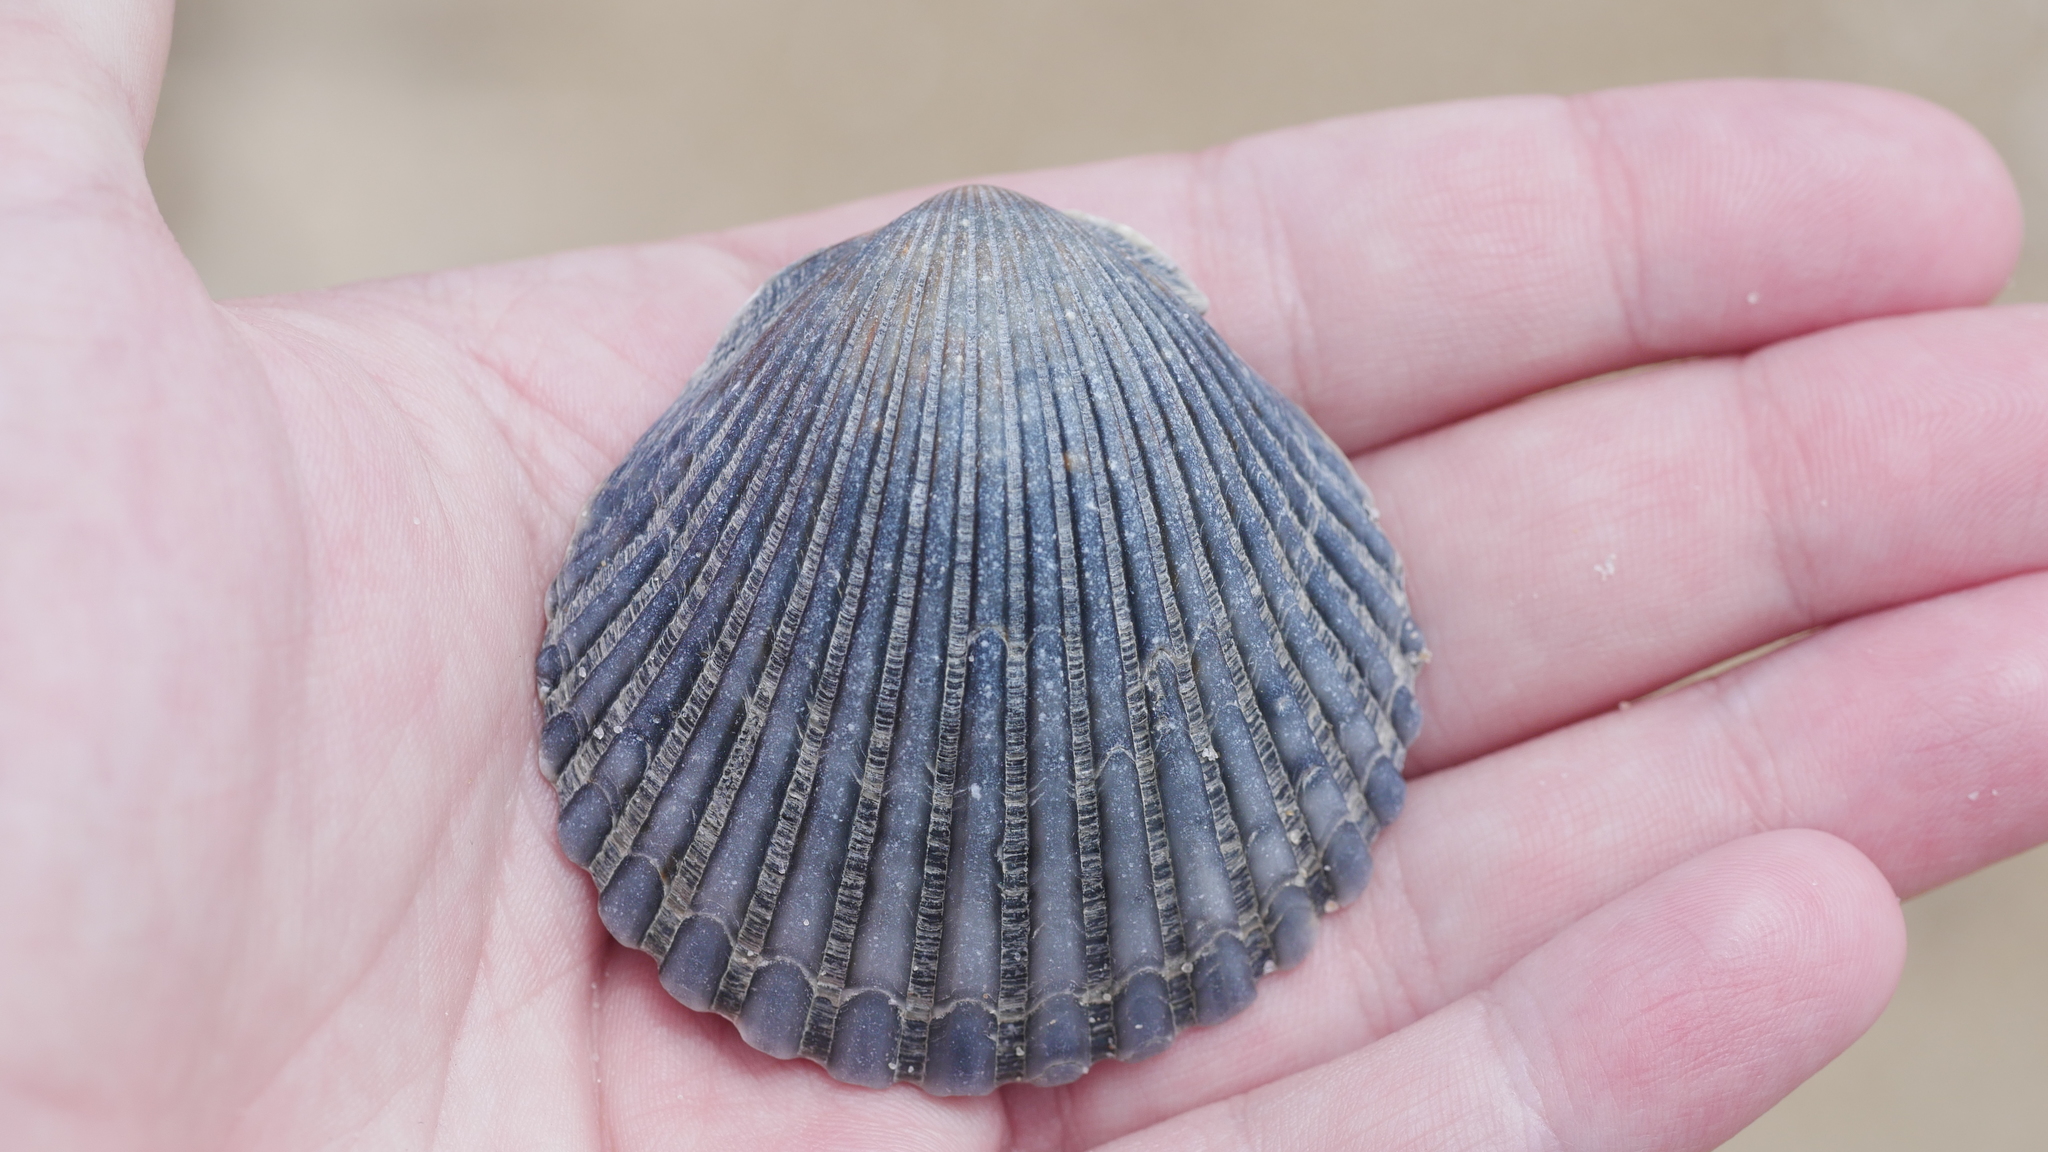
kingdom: Animalia
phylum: Mollusca
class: Bivalvia
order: Pectinida
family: Pectinidae
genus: Argopecten
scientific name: Argopecten irradians
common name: Atlantic bay scallop
